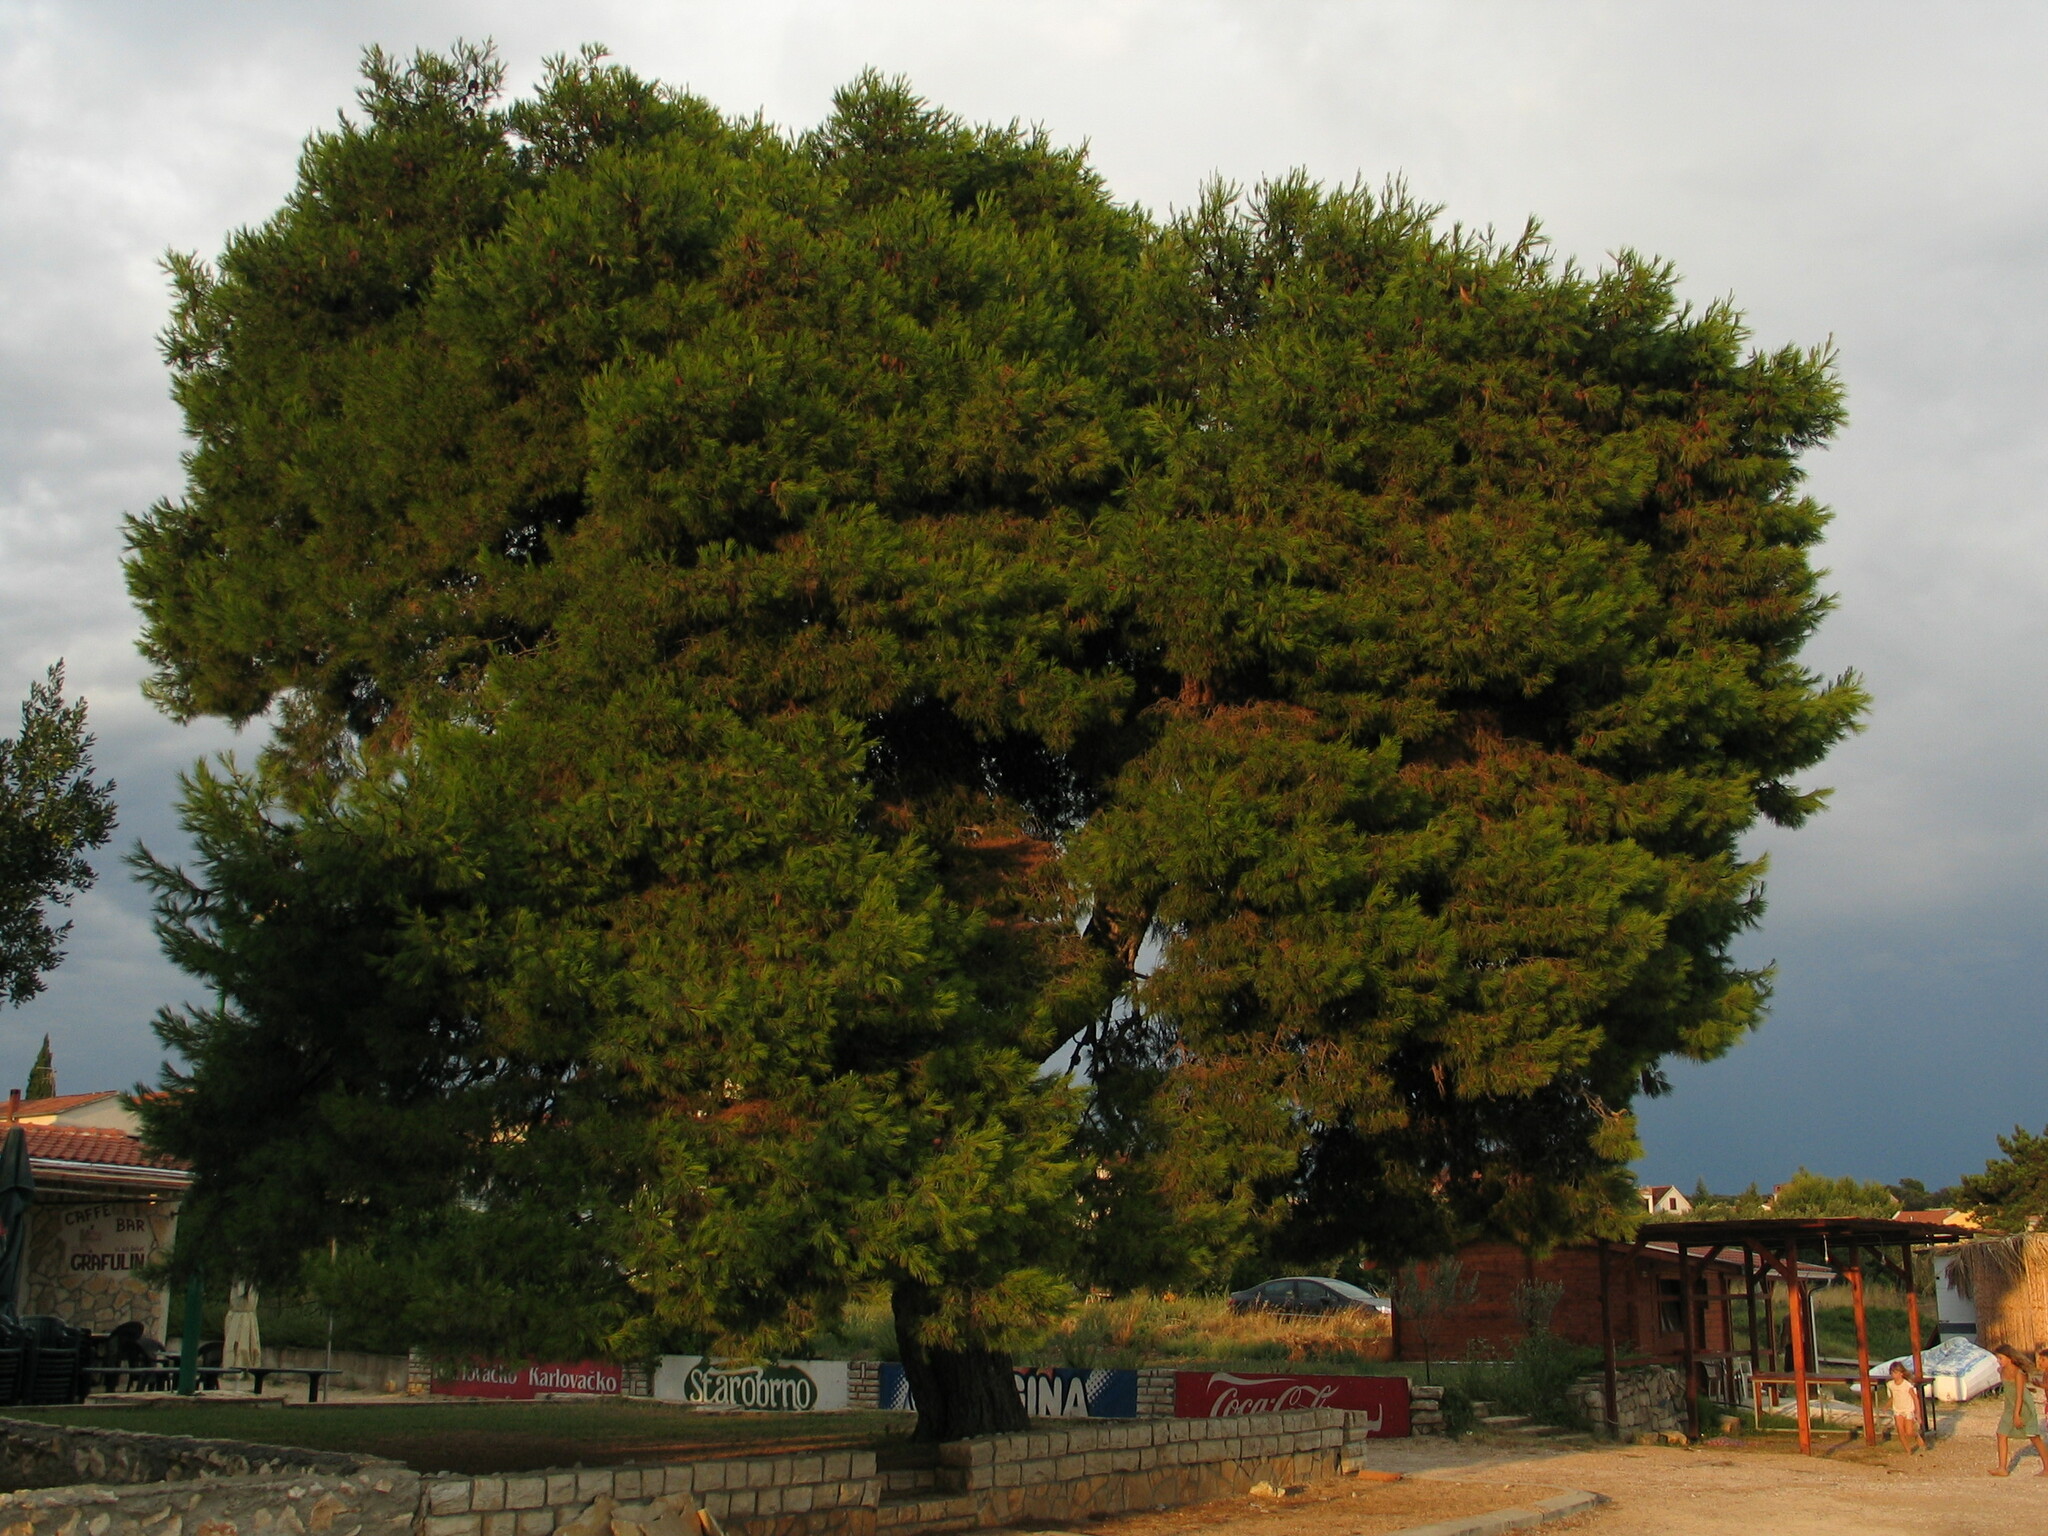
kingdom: Plantae
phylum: Tracheophyta
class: Pinopsida
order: Pinales
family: Pinaceae
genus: Pinus
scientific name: Pinus halepensis
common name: Aleppo pine
